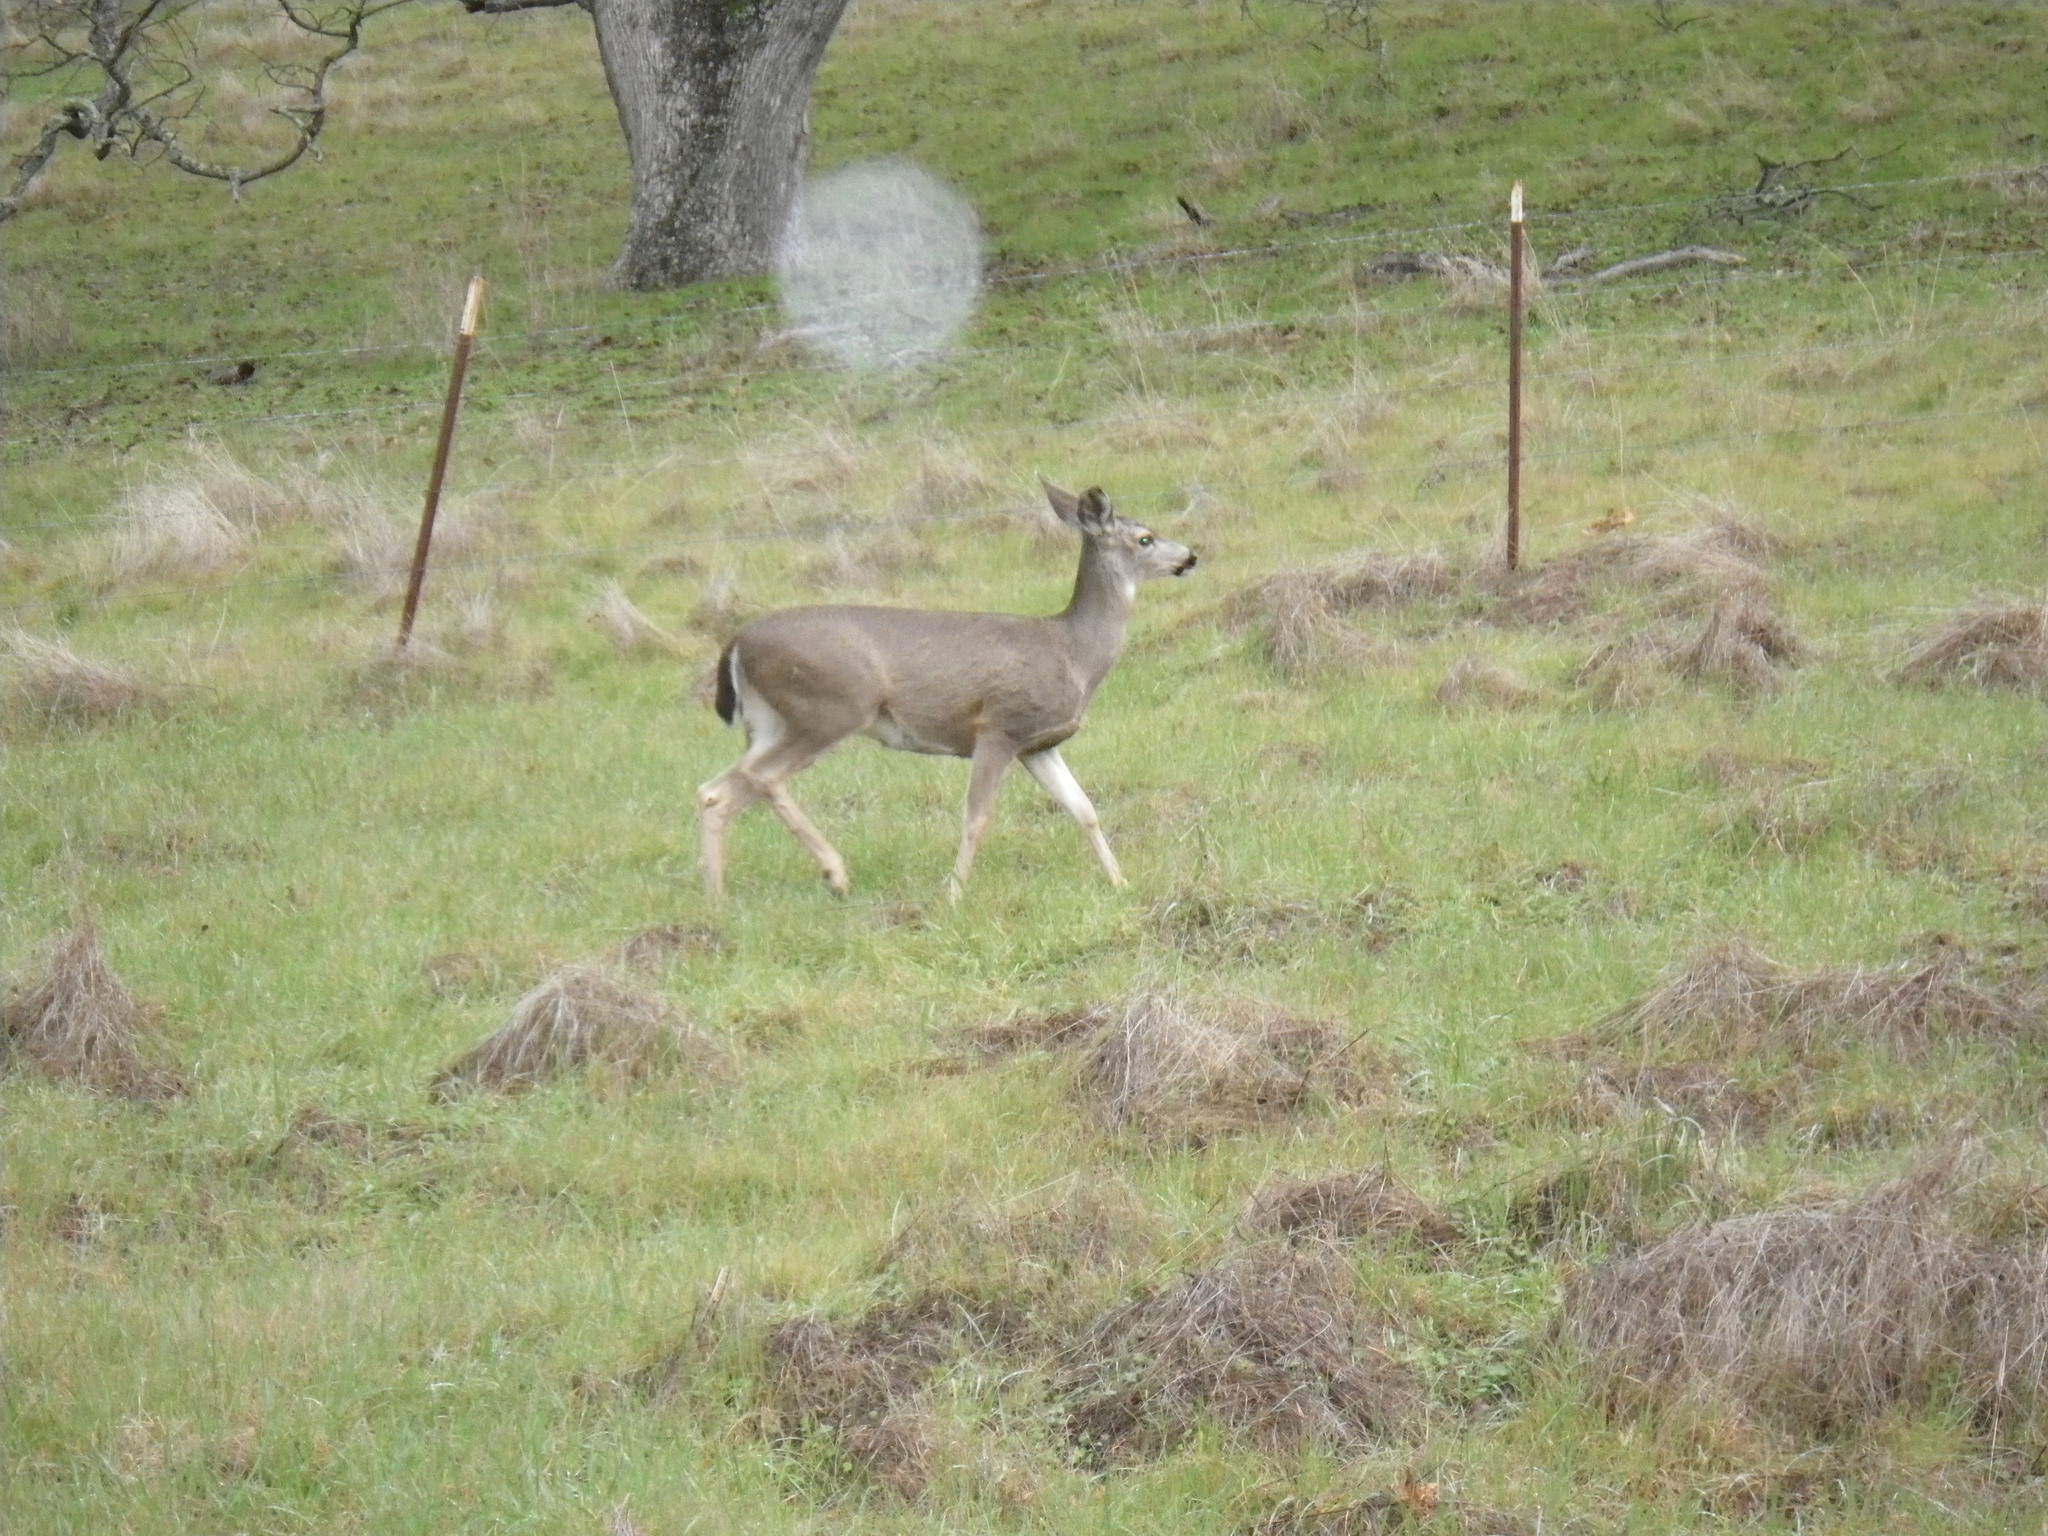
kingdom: Animalia
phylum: Chordata
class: Mammalia
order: Artiodactyla
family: Cervidae
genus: Odocoileus
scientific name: Odocoileus hemionus
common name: Mule deer
